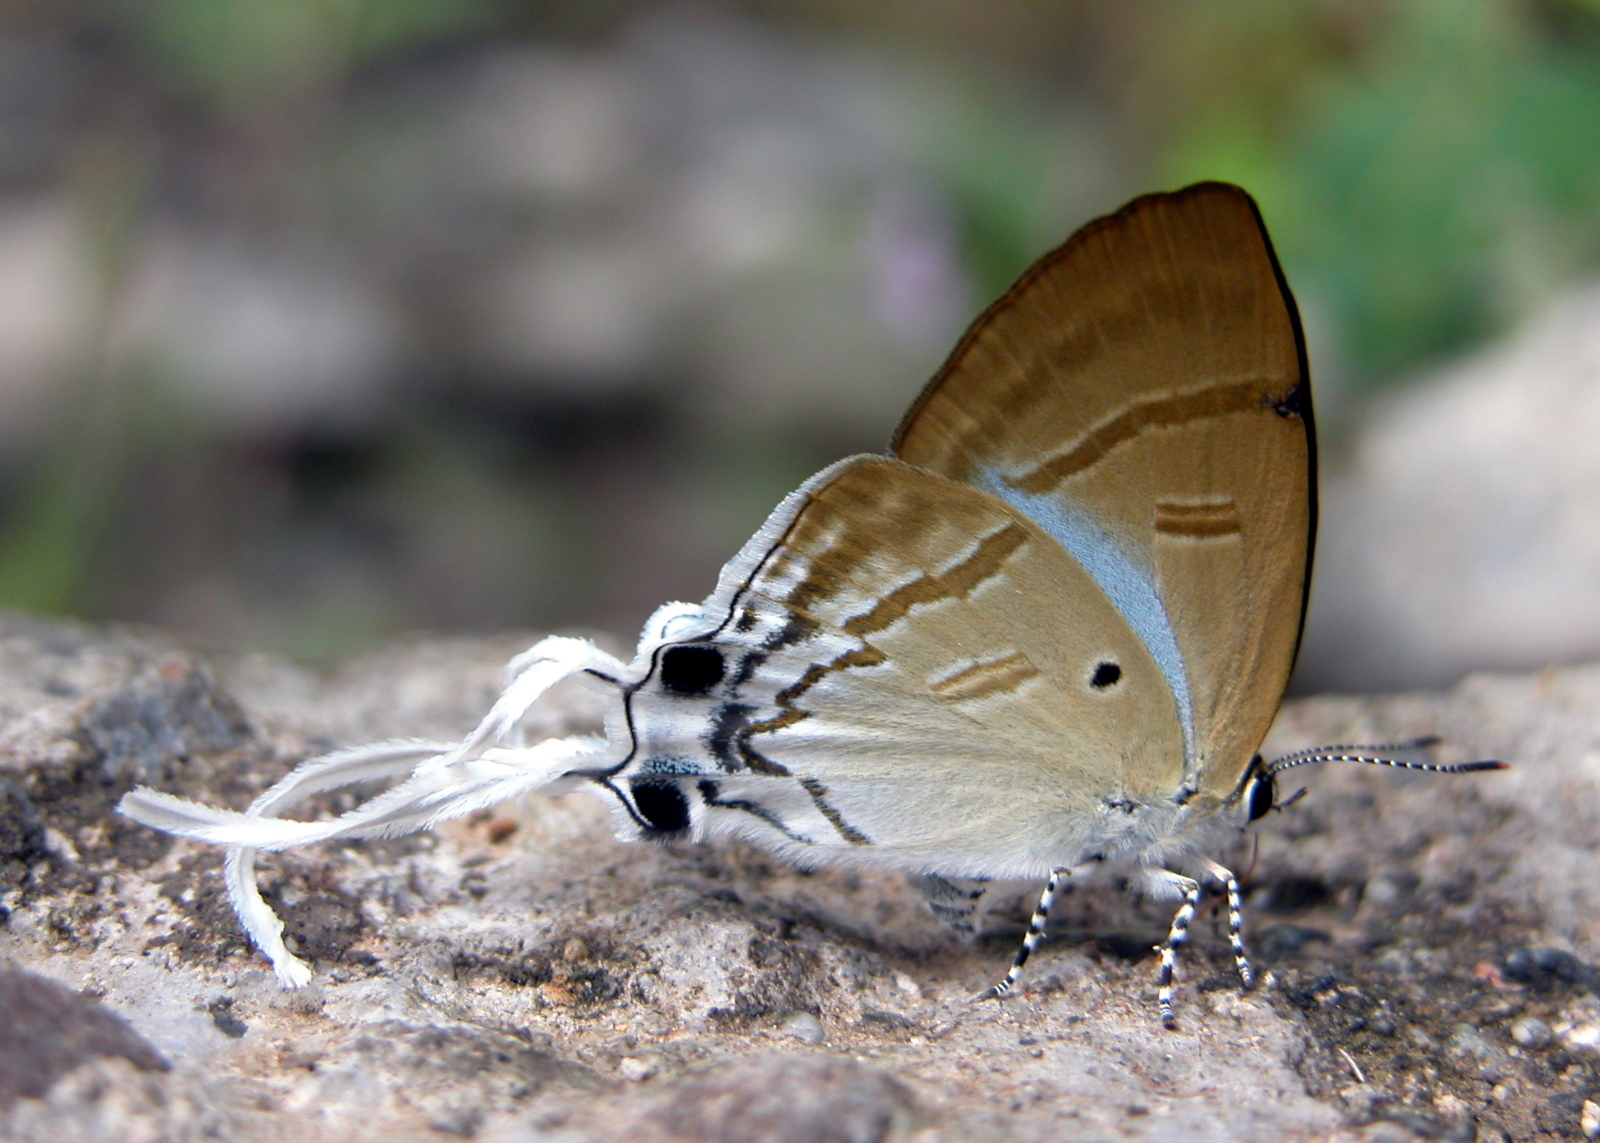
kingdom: Animalia
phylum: Arthropoda
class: Insecta
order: Lepidoptera
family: Lycaenidae
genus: Zeltus
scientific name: Zeltus amasa
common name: Fluffy tit
